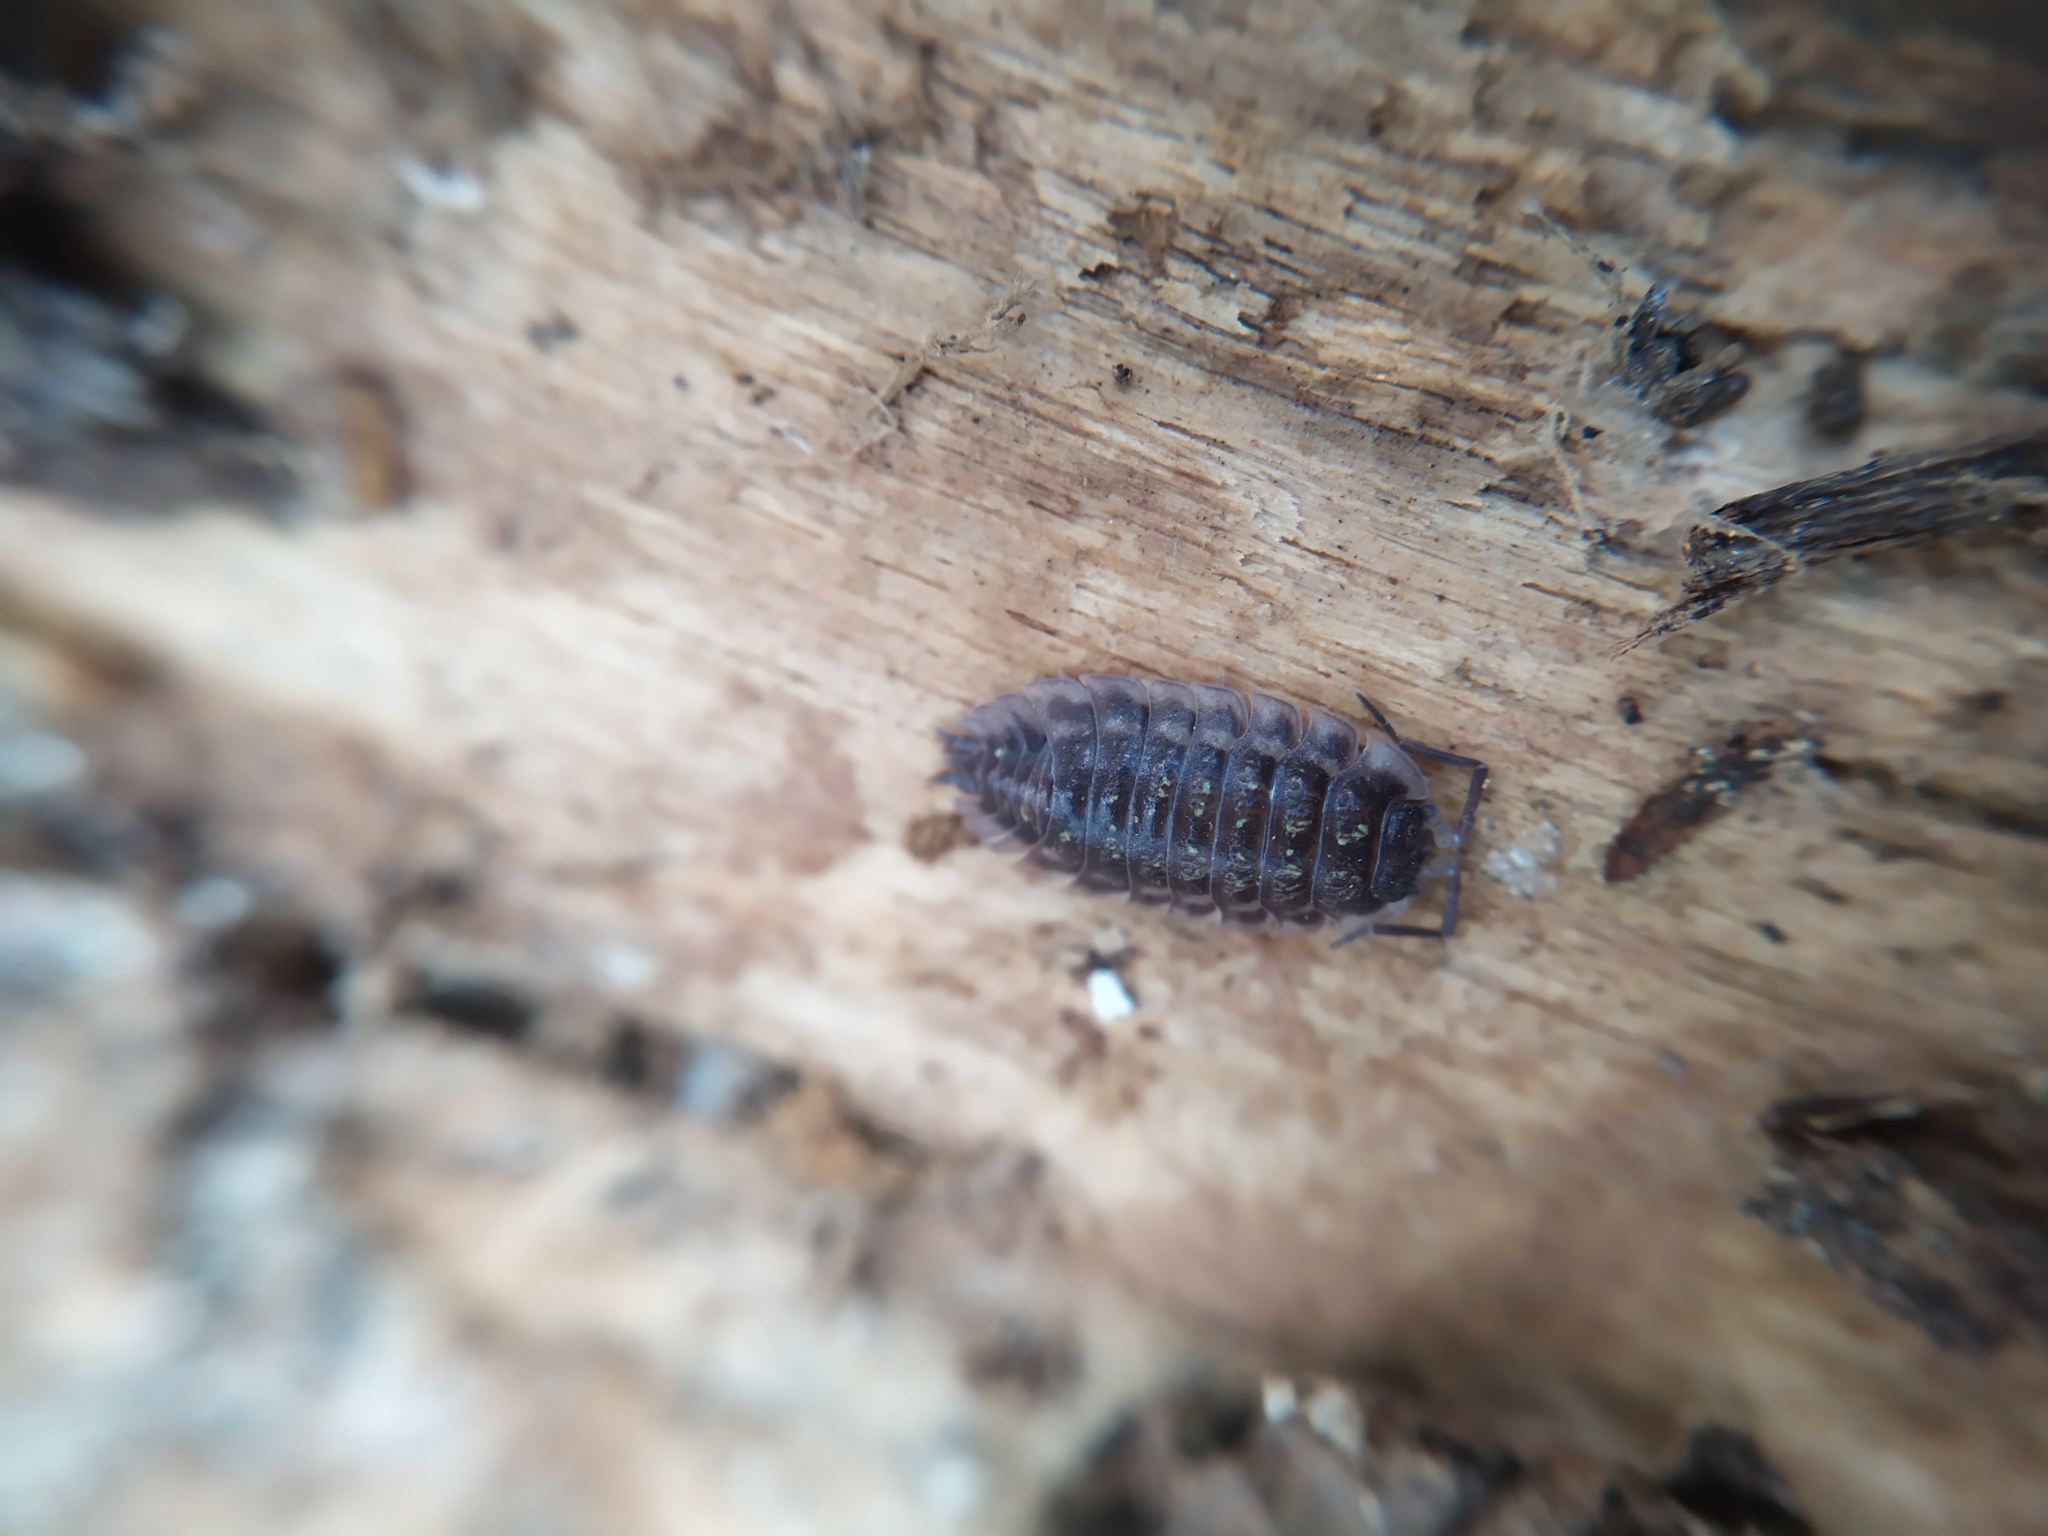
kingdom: Animalia
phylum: Arthropoda
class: Malacostraca
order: Isopoda
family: Oniscidae
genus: Oniscus
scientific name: Oniscus asellus
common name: Common shiny woodlouse
